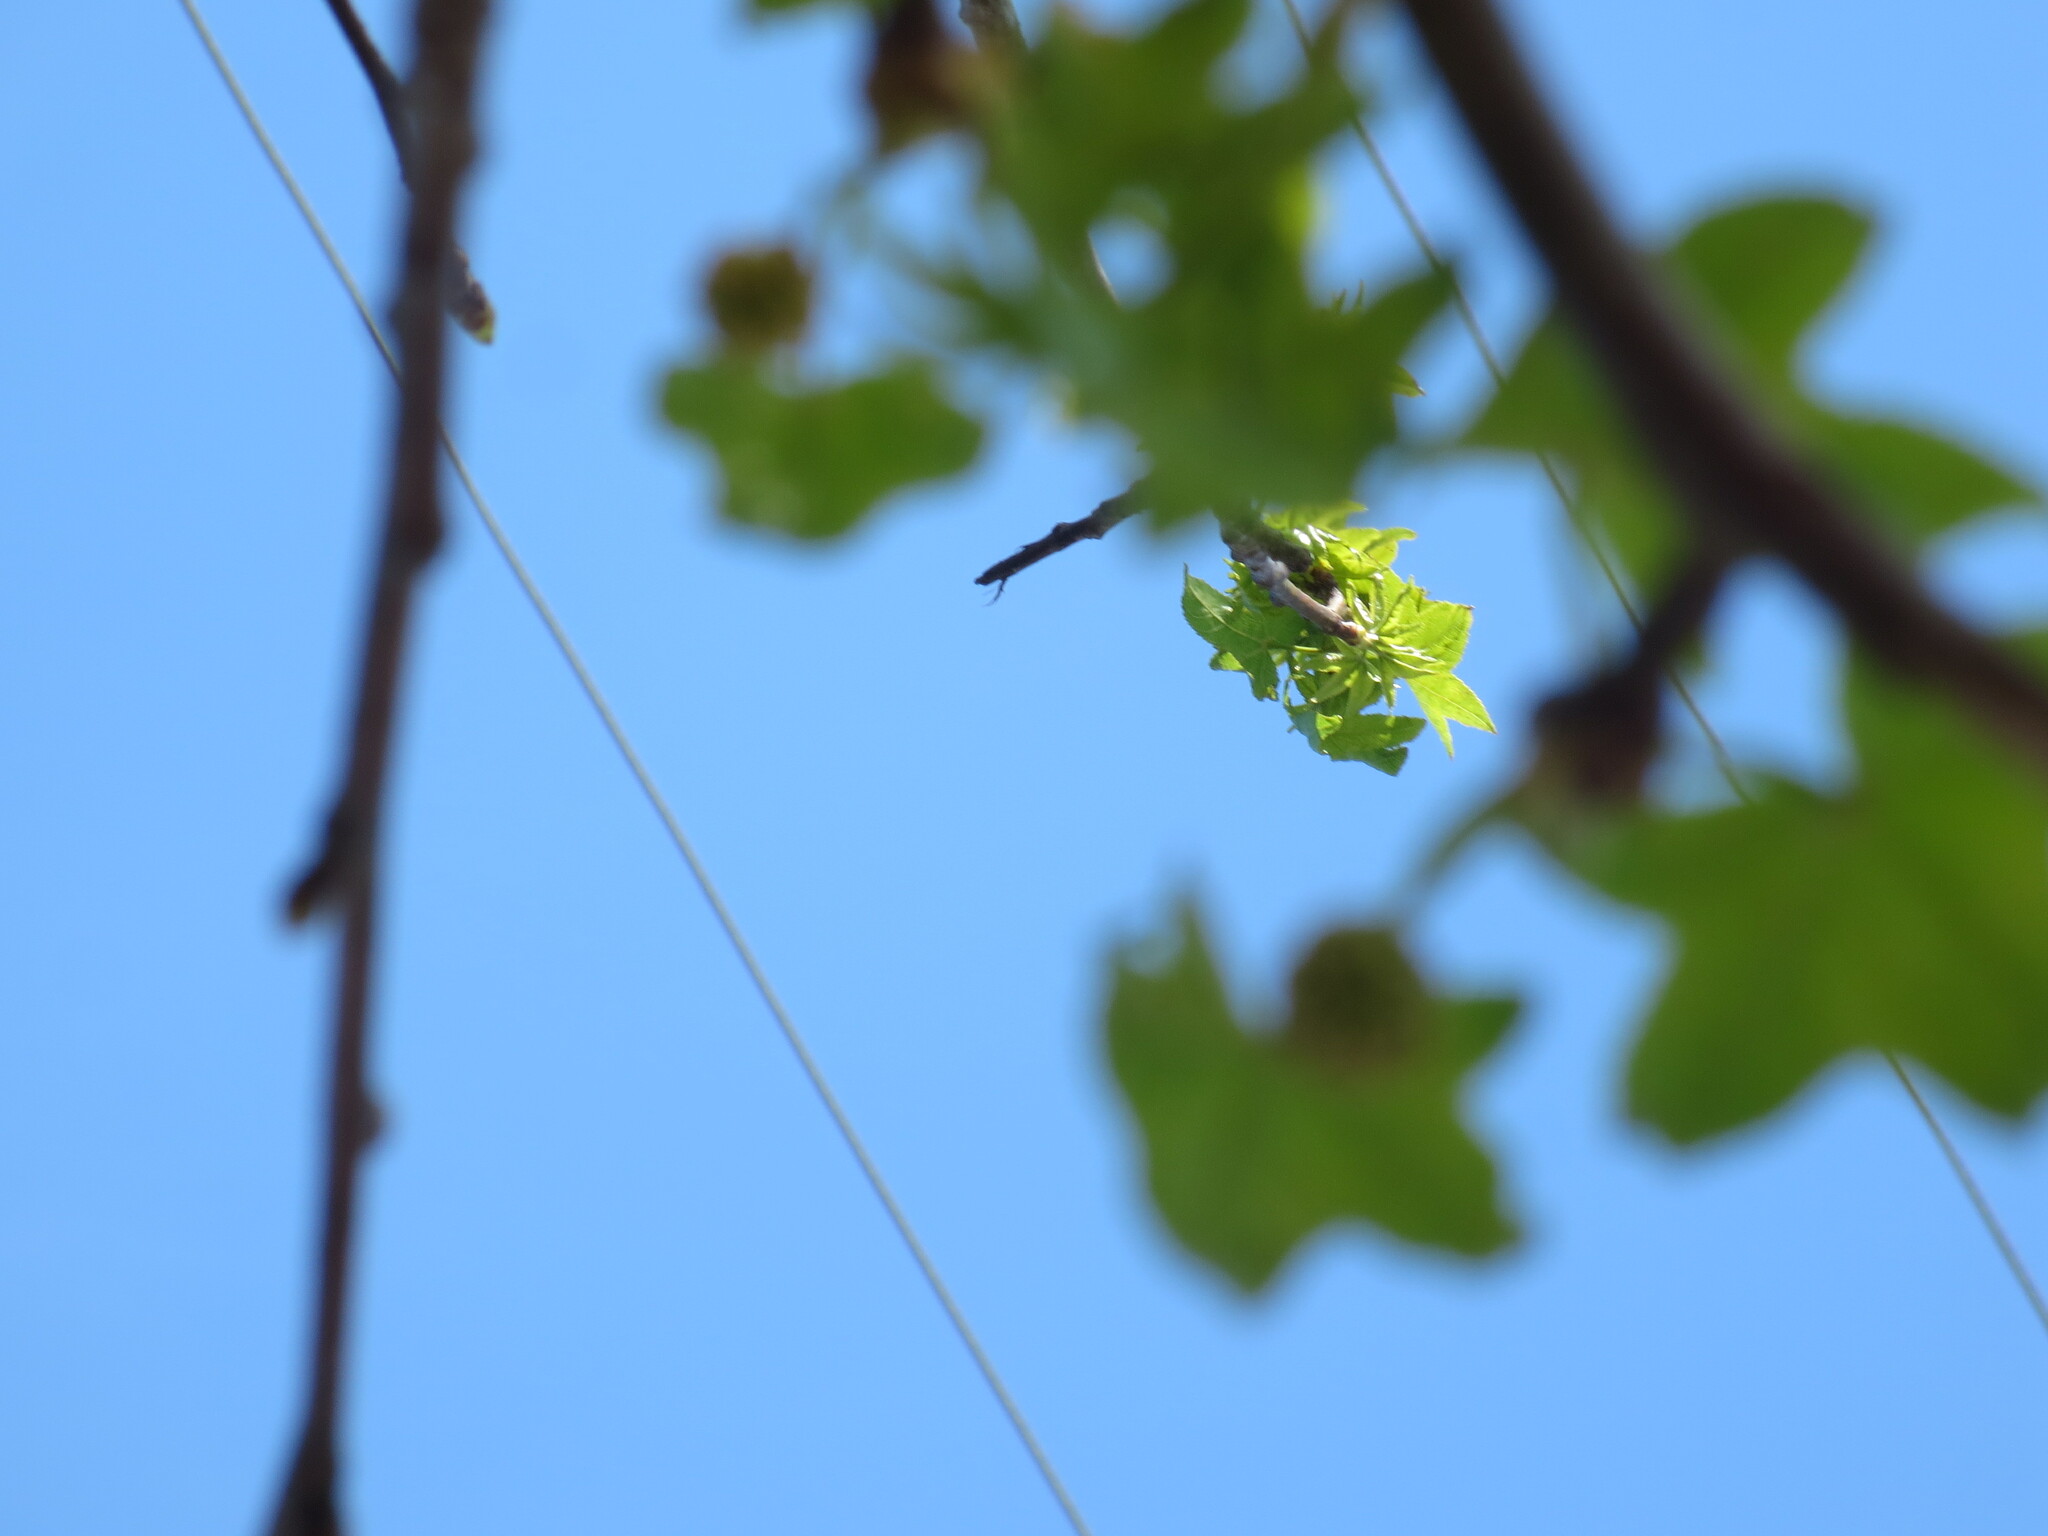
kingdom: Plantae
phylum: Tracheophyta
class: Magnoliopsida
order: Saxifragales
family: Altingiaceae
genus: Liquidambar
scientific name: Liquidambar styraciflua
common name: Sweet gum
